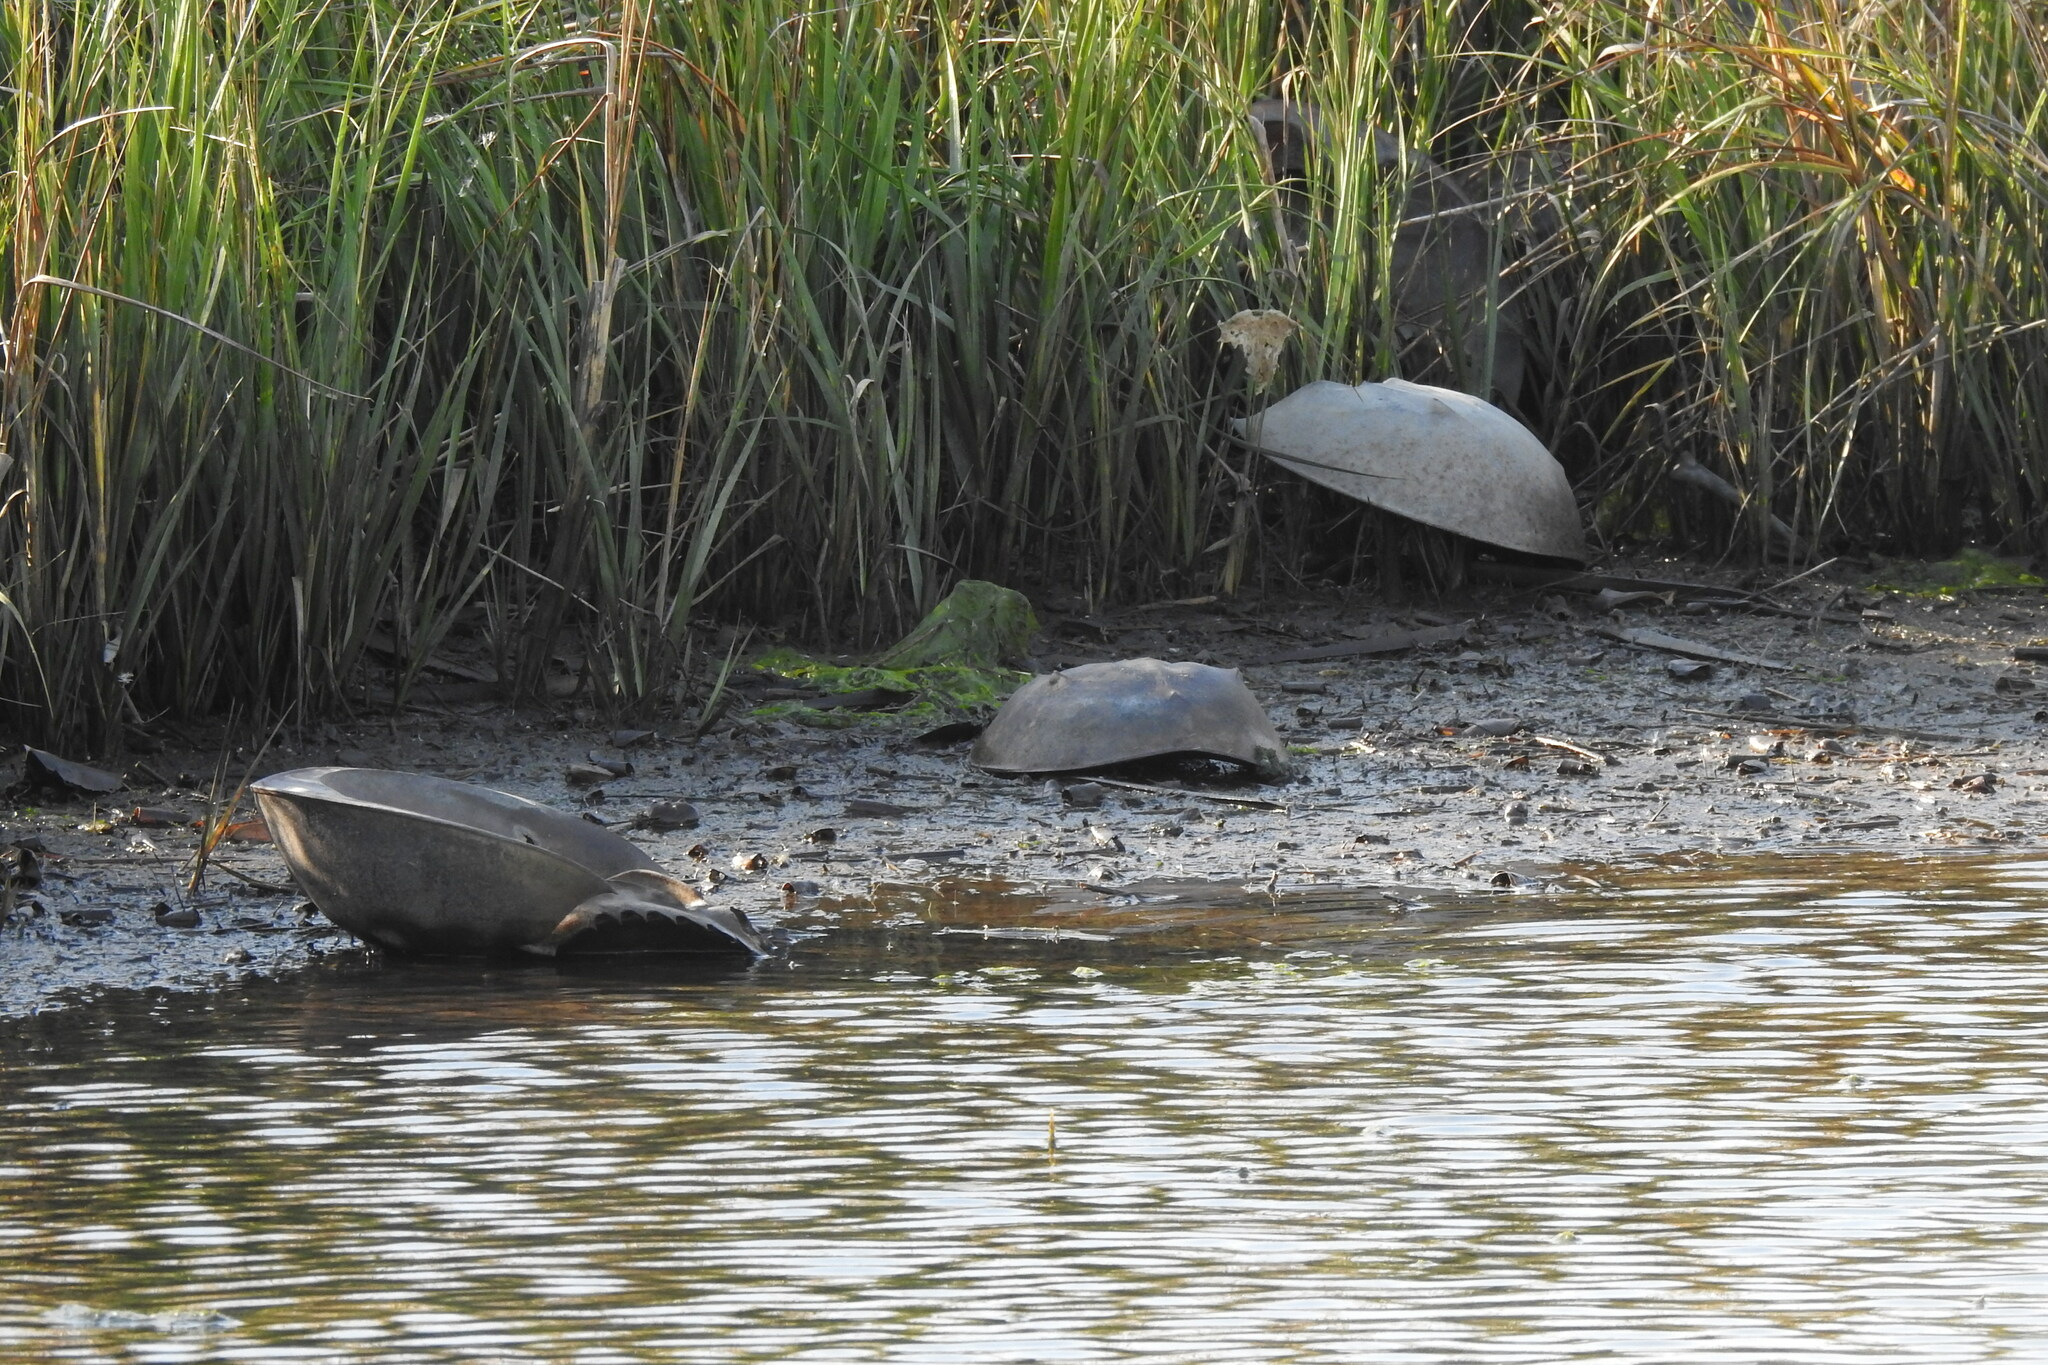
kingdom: Animalia
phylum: Arthropoda
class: Merostomata
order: Xiphosurida
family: Limulidae
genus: Limulus
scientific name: Limulus polyphemus
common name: Horseshoe crab
